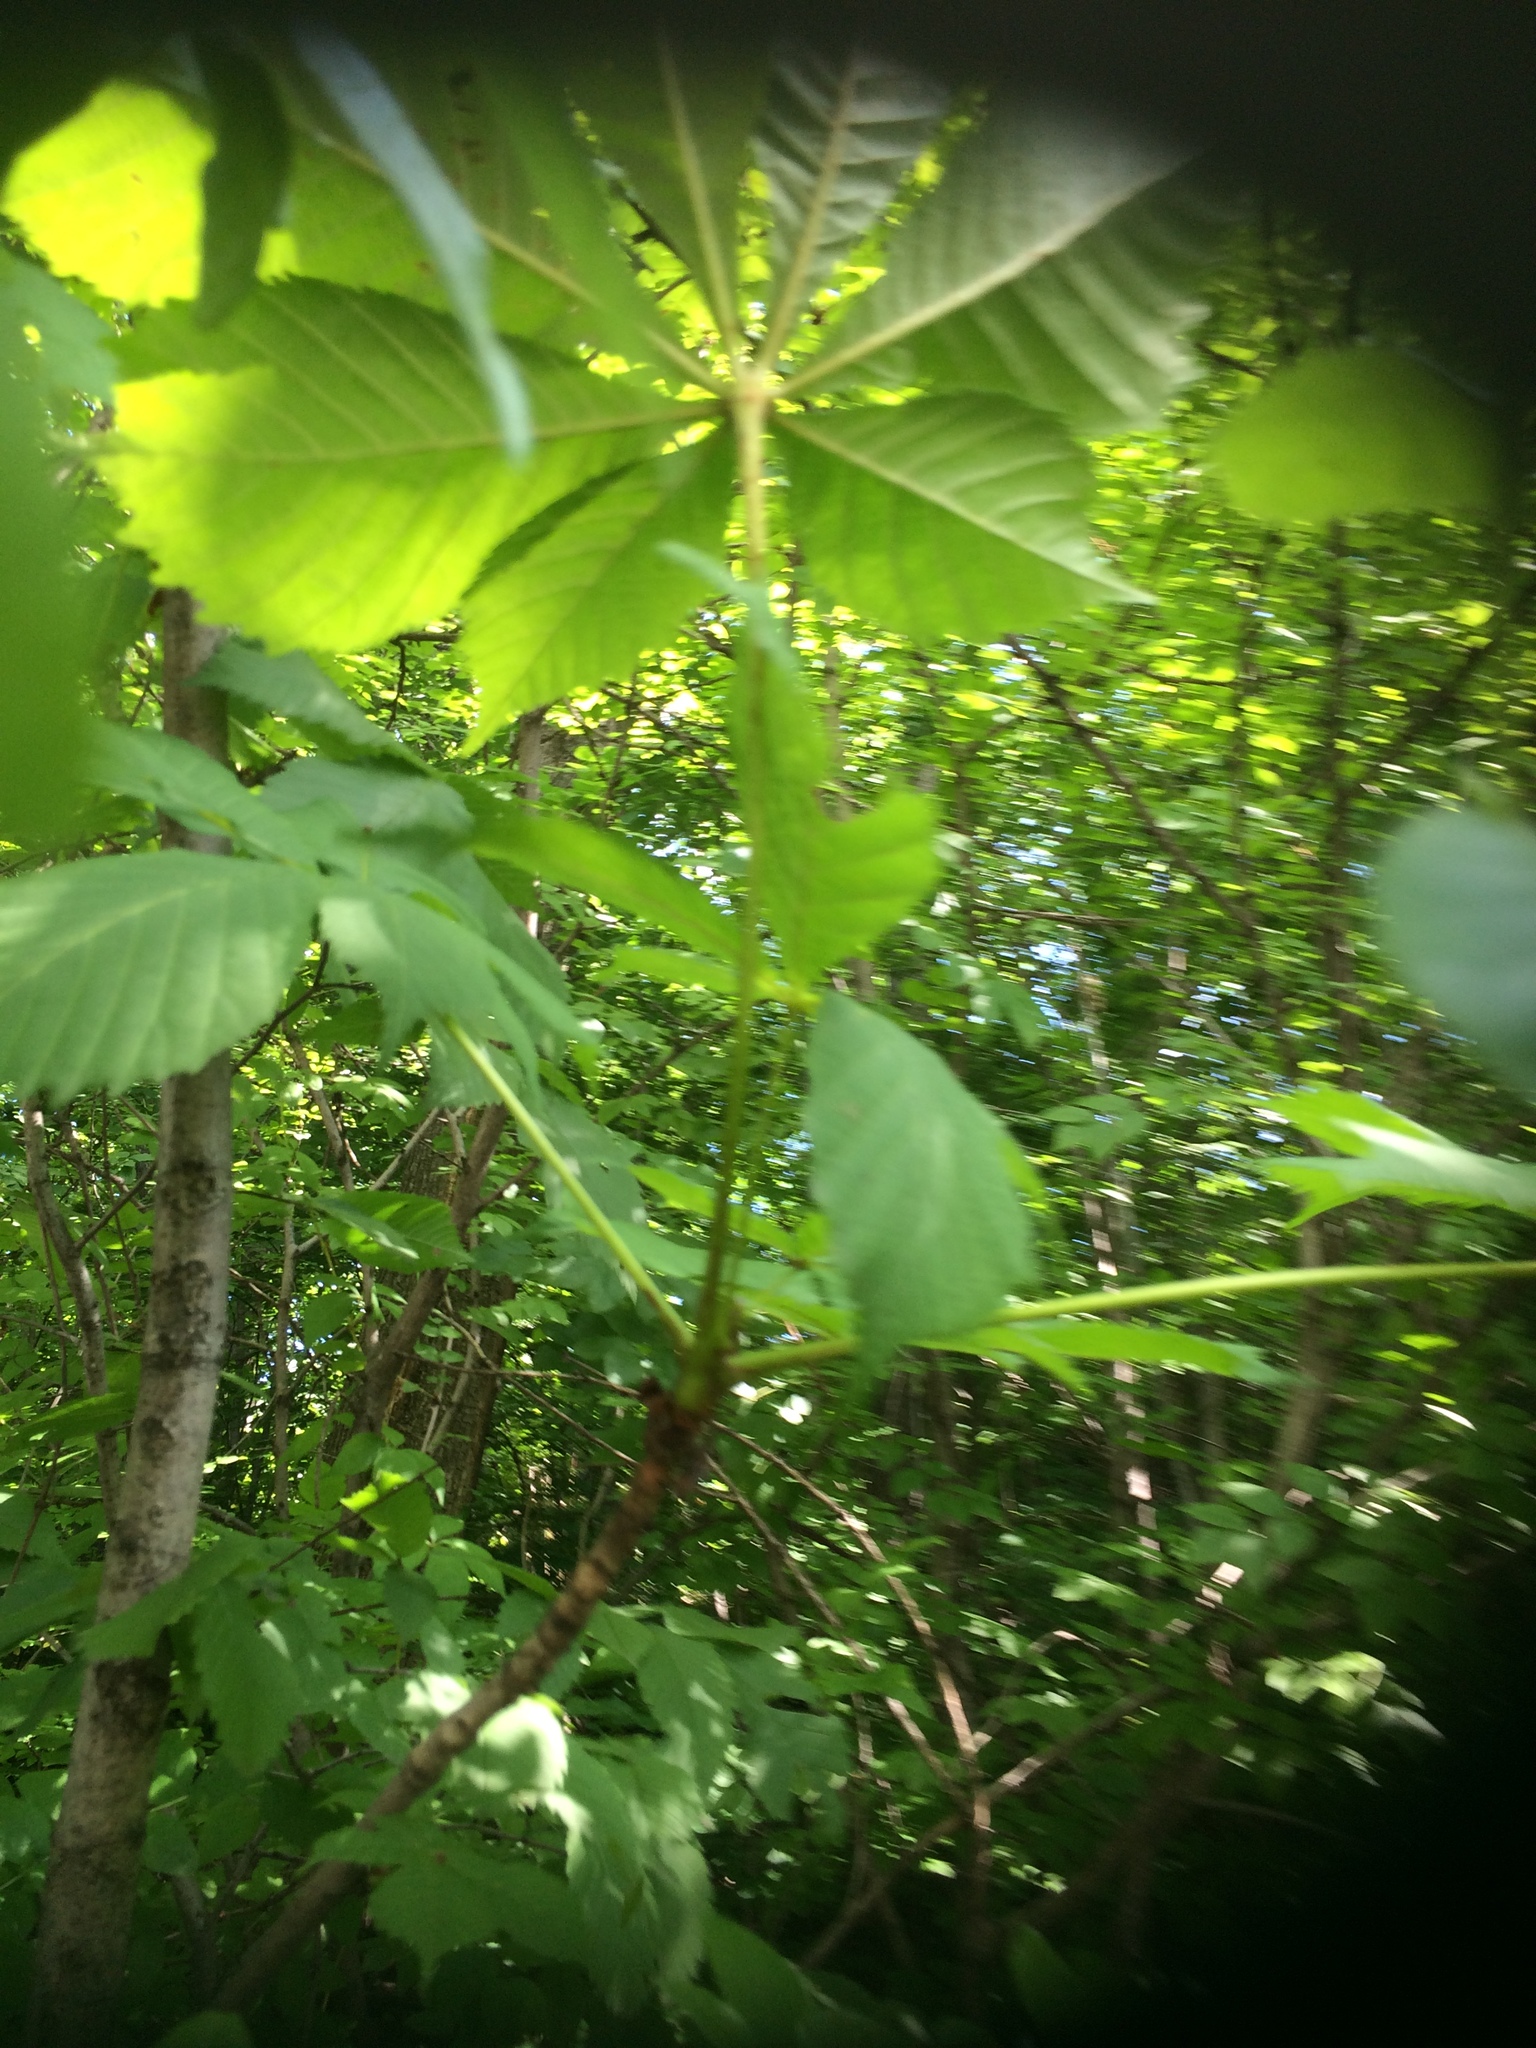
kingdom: Plantae
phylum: Tracheophyta
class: Magnoliopsida
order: Sapindales
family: Sapindaceae
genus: Aesculus
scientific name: Aesculus hippocastanum
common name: Horse-chestnut
